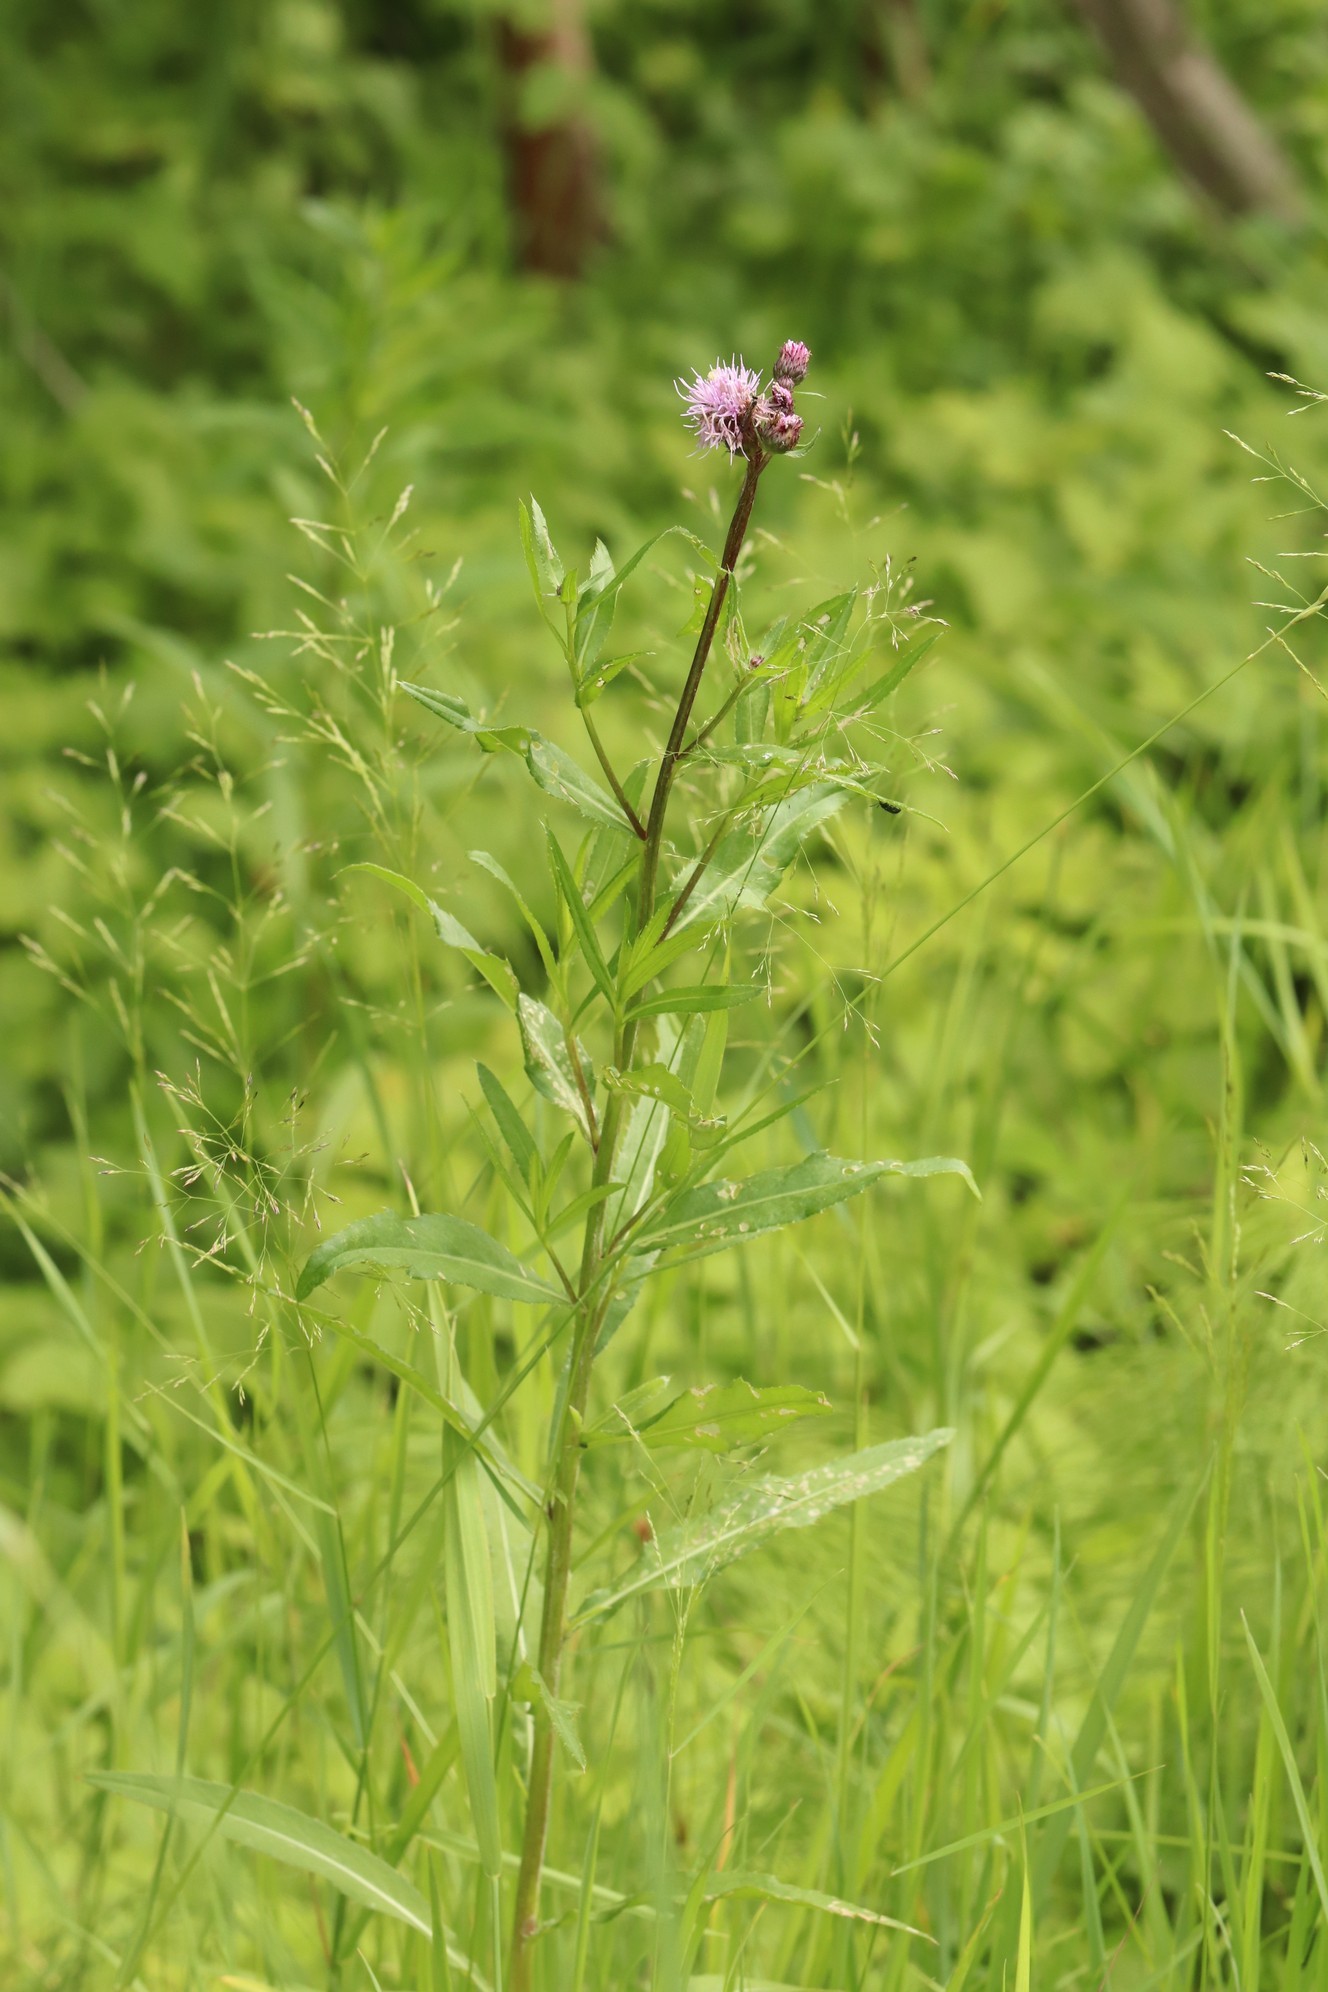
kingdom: Plantae
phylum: Tracheophyta
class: Magnoliopsida
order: Asterales
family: Asteraceae
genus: Cirsium
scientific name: Cirsium arvense
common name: Creeping thistle
